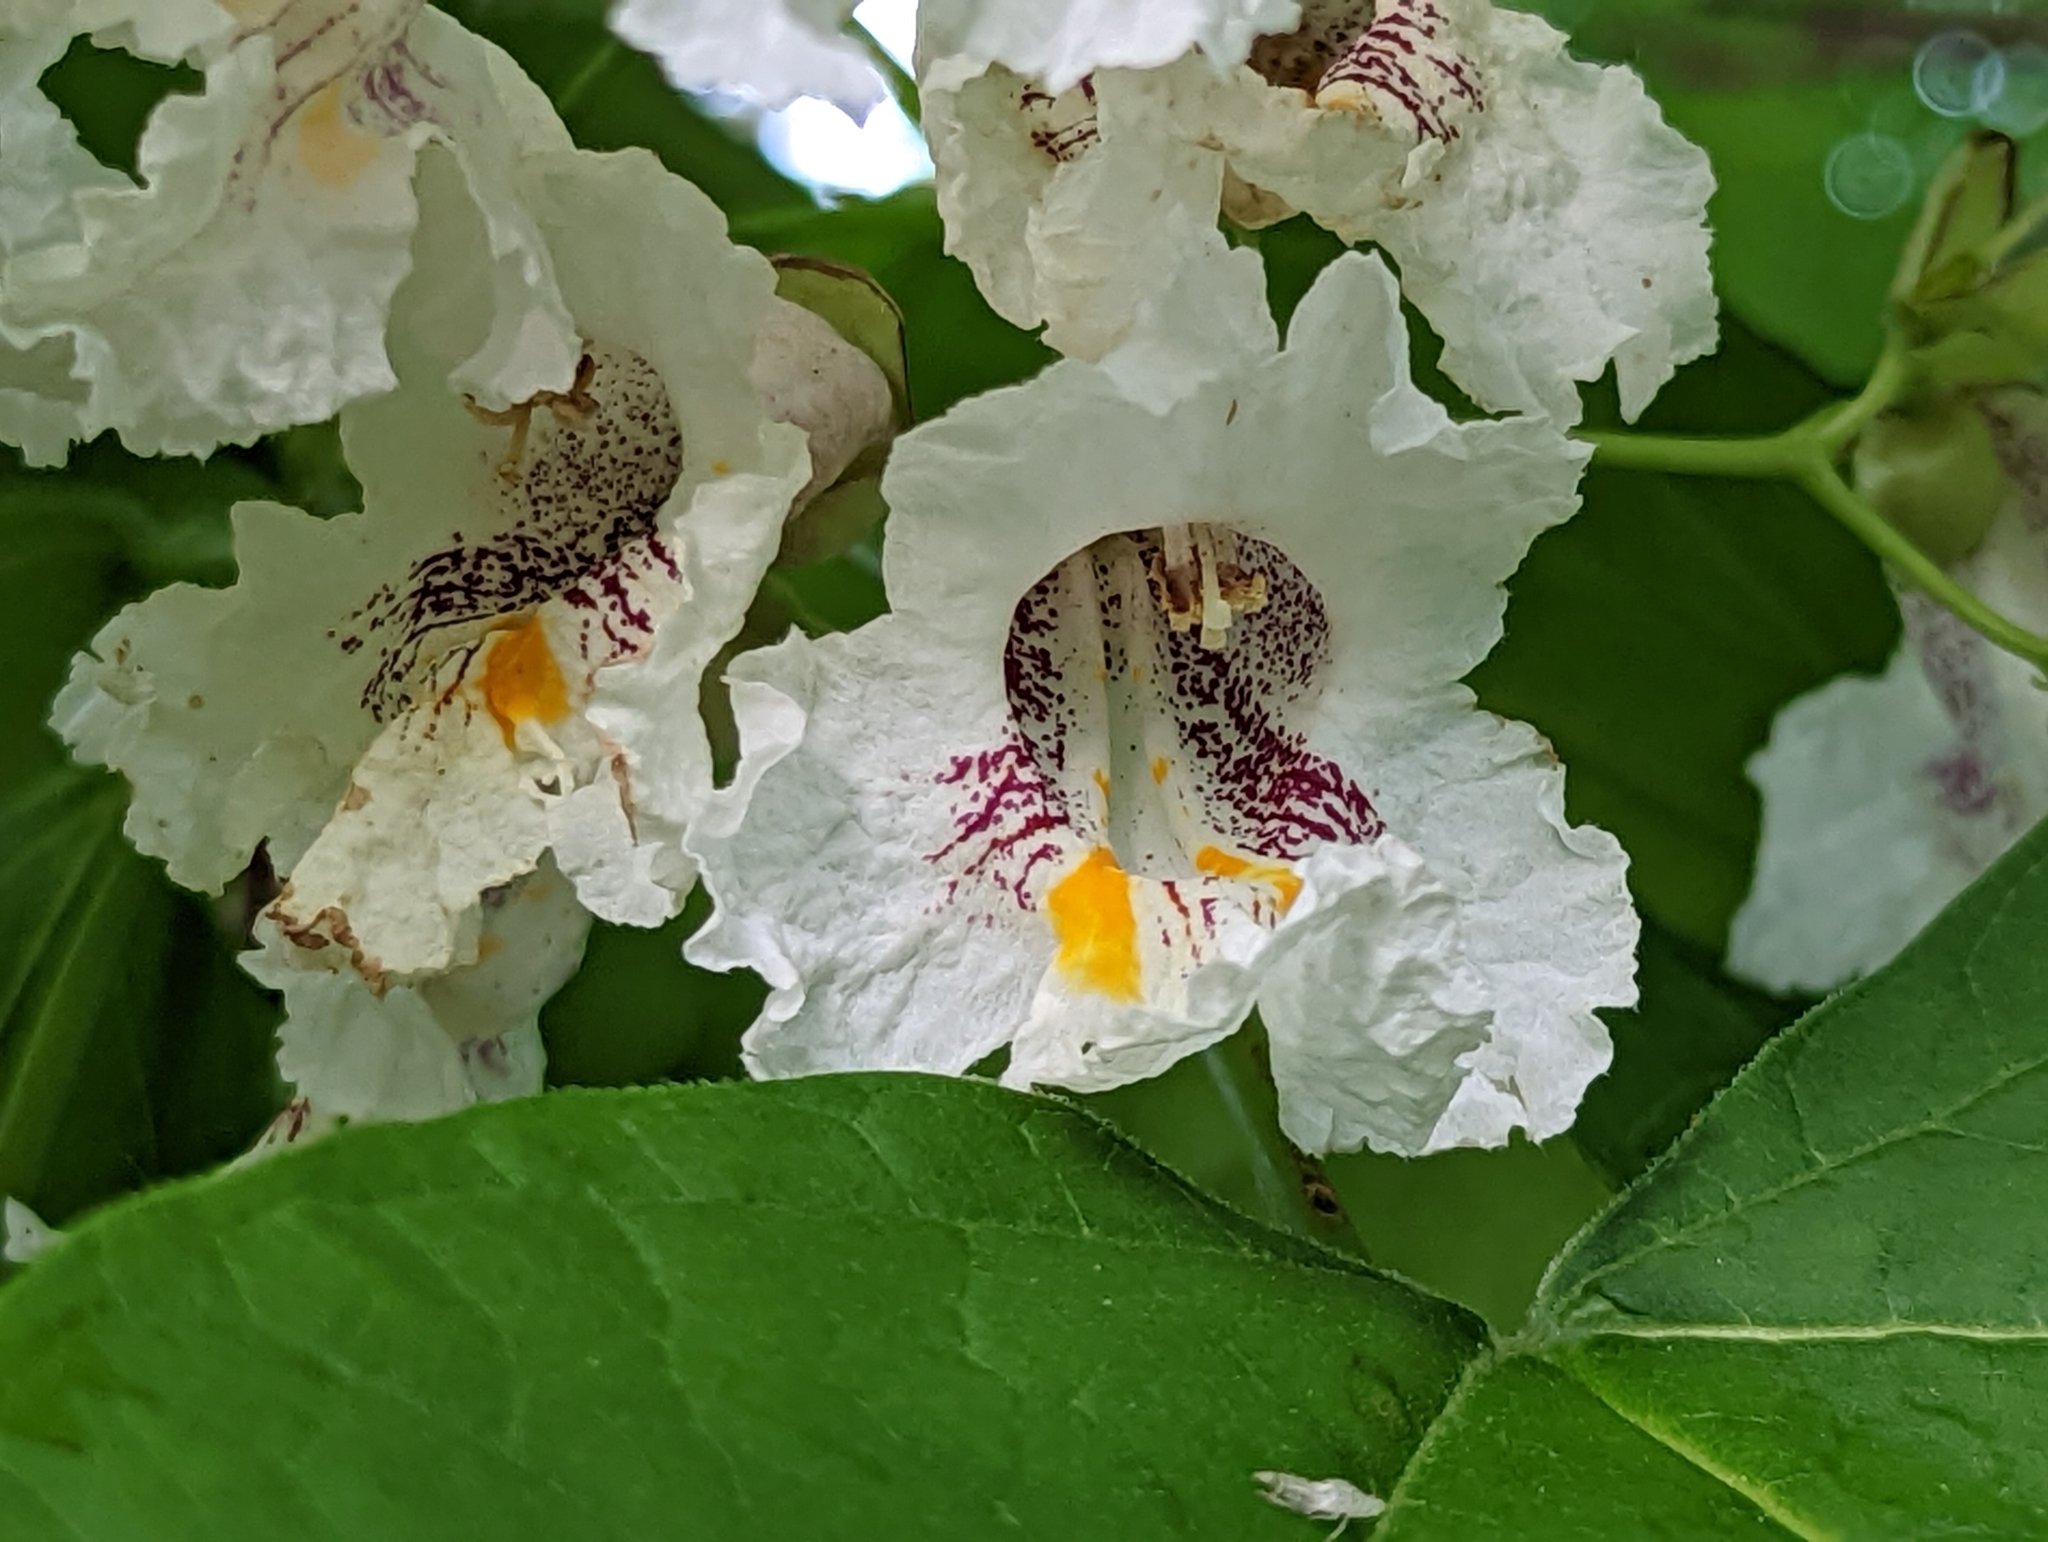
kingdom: Plantae
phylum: Tracheophyta
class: Magnoliopsida
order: Lamiales
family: Bignoniaceae
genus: Catalpa
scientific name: Catalpa speciosa
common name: Northern catalpa
